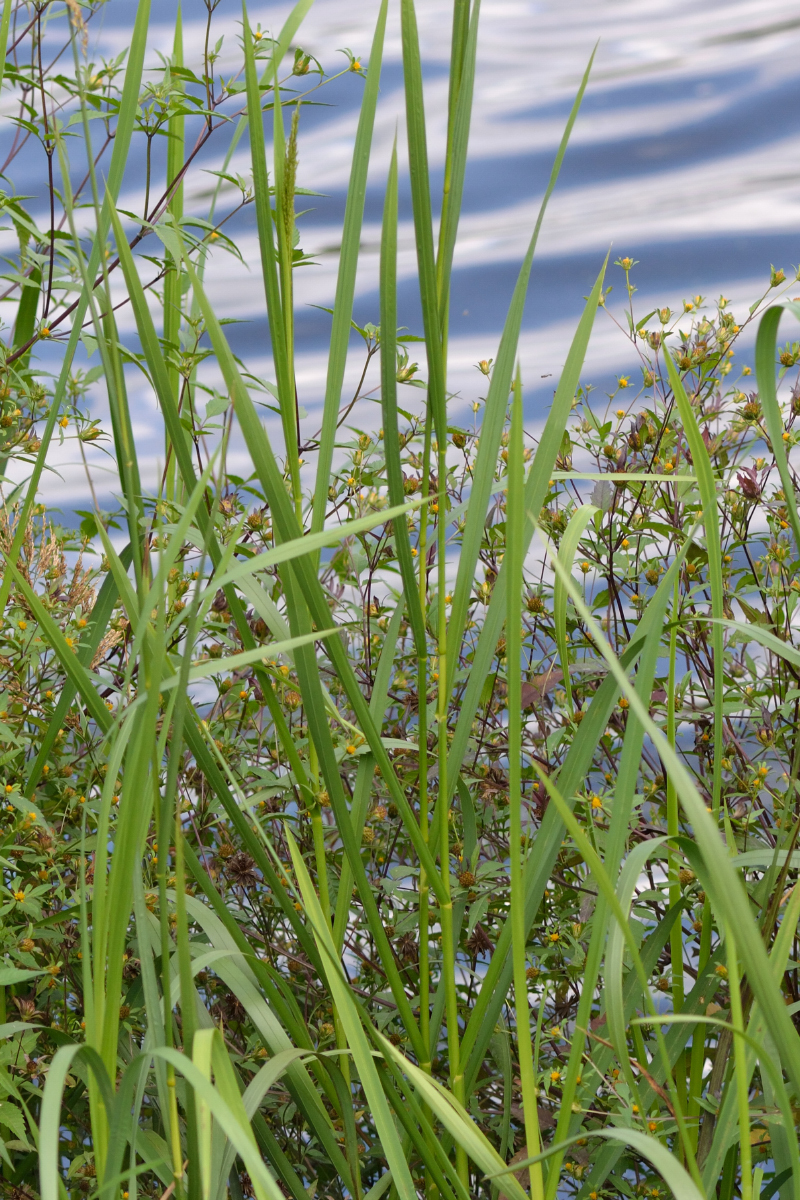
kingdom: Plantae
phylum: Tracheophyta
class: Liliopsida
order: Poales
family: Poaceae
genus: Glyceria
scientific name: Glyceria maxima
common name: Reed mannagrass
